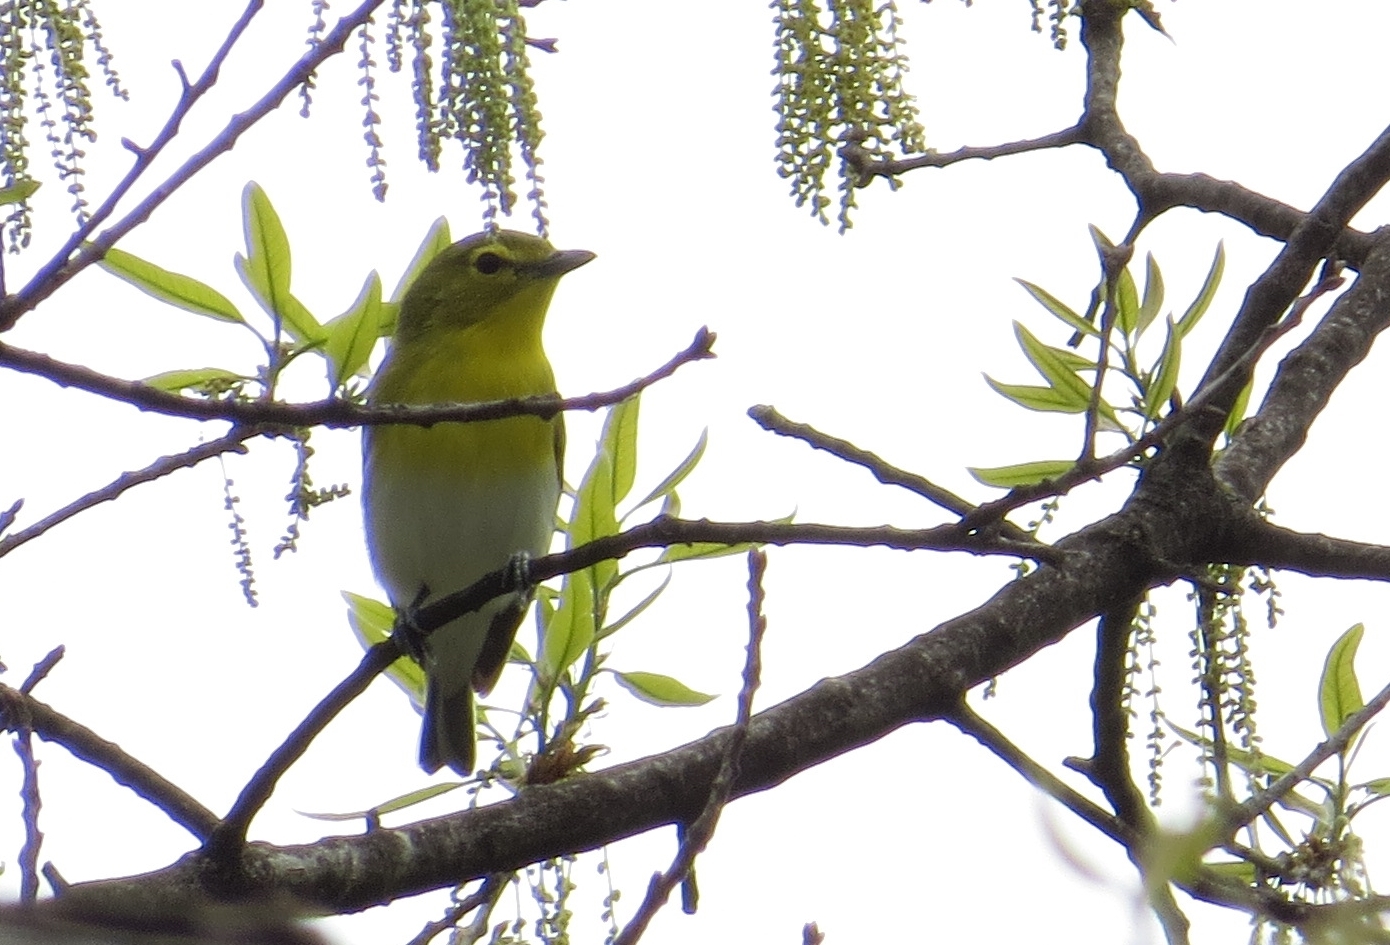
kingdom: Animalia
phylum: Chordata
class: Aves
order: Passeriformes
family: Vireonidae
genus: Vireo
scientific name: Vireo flavifrons
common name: Yellow-throated vireo
